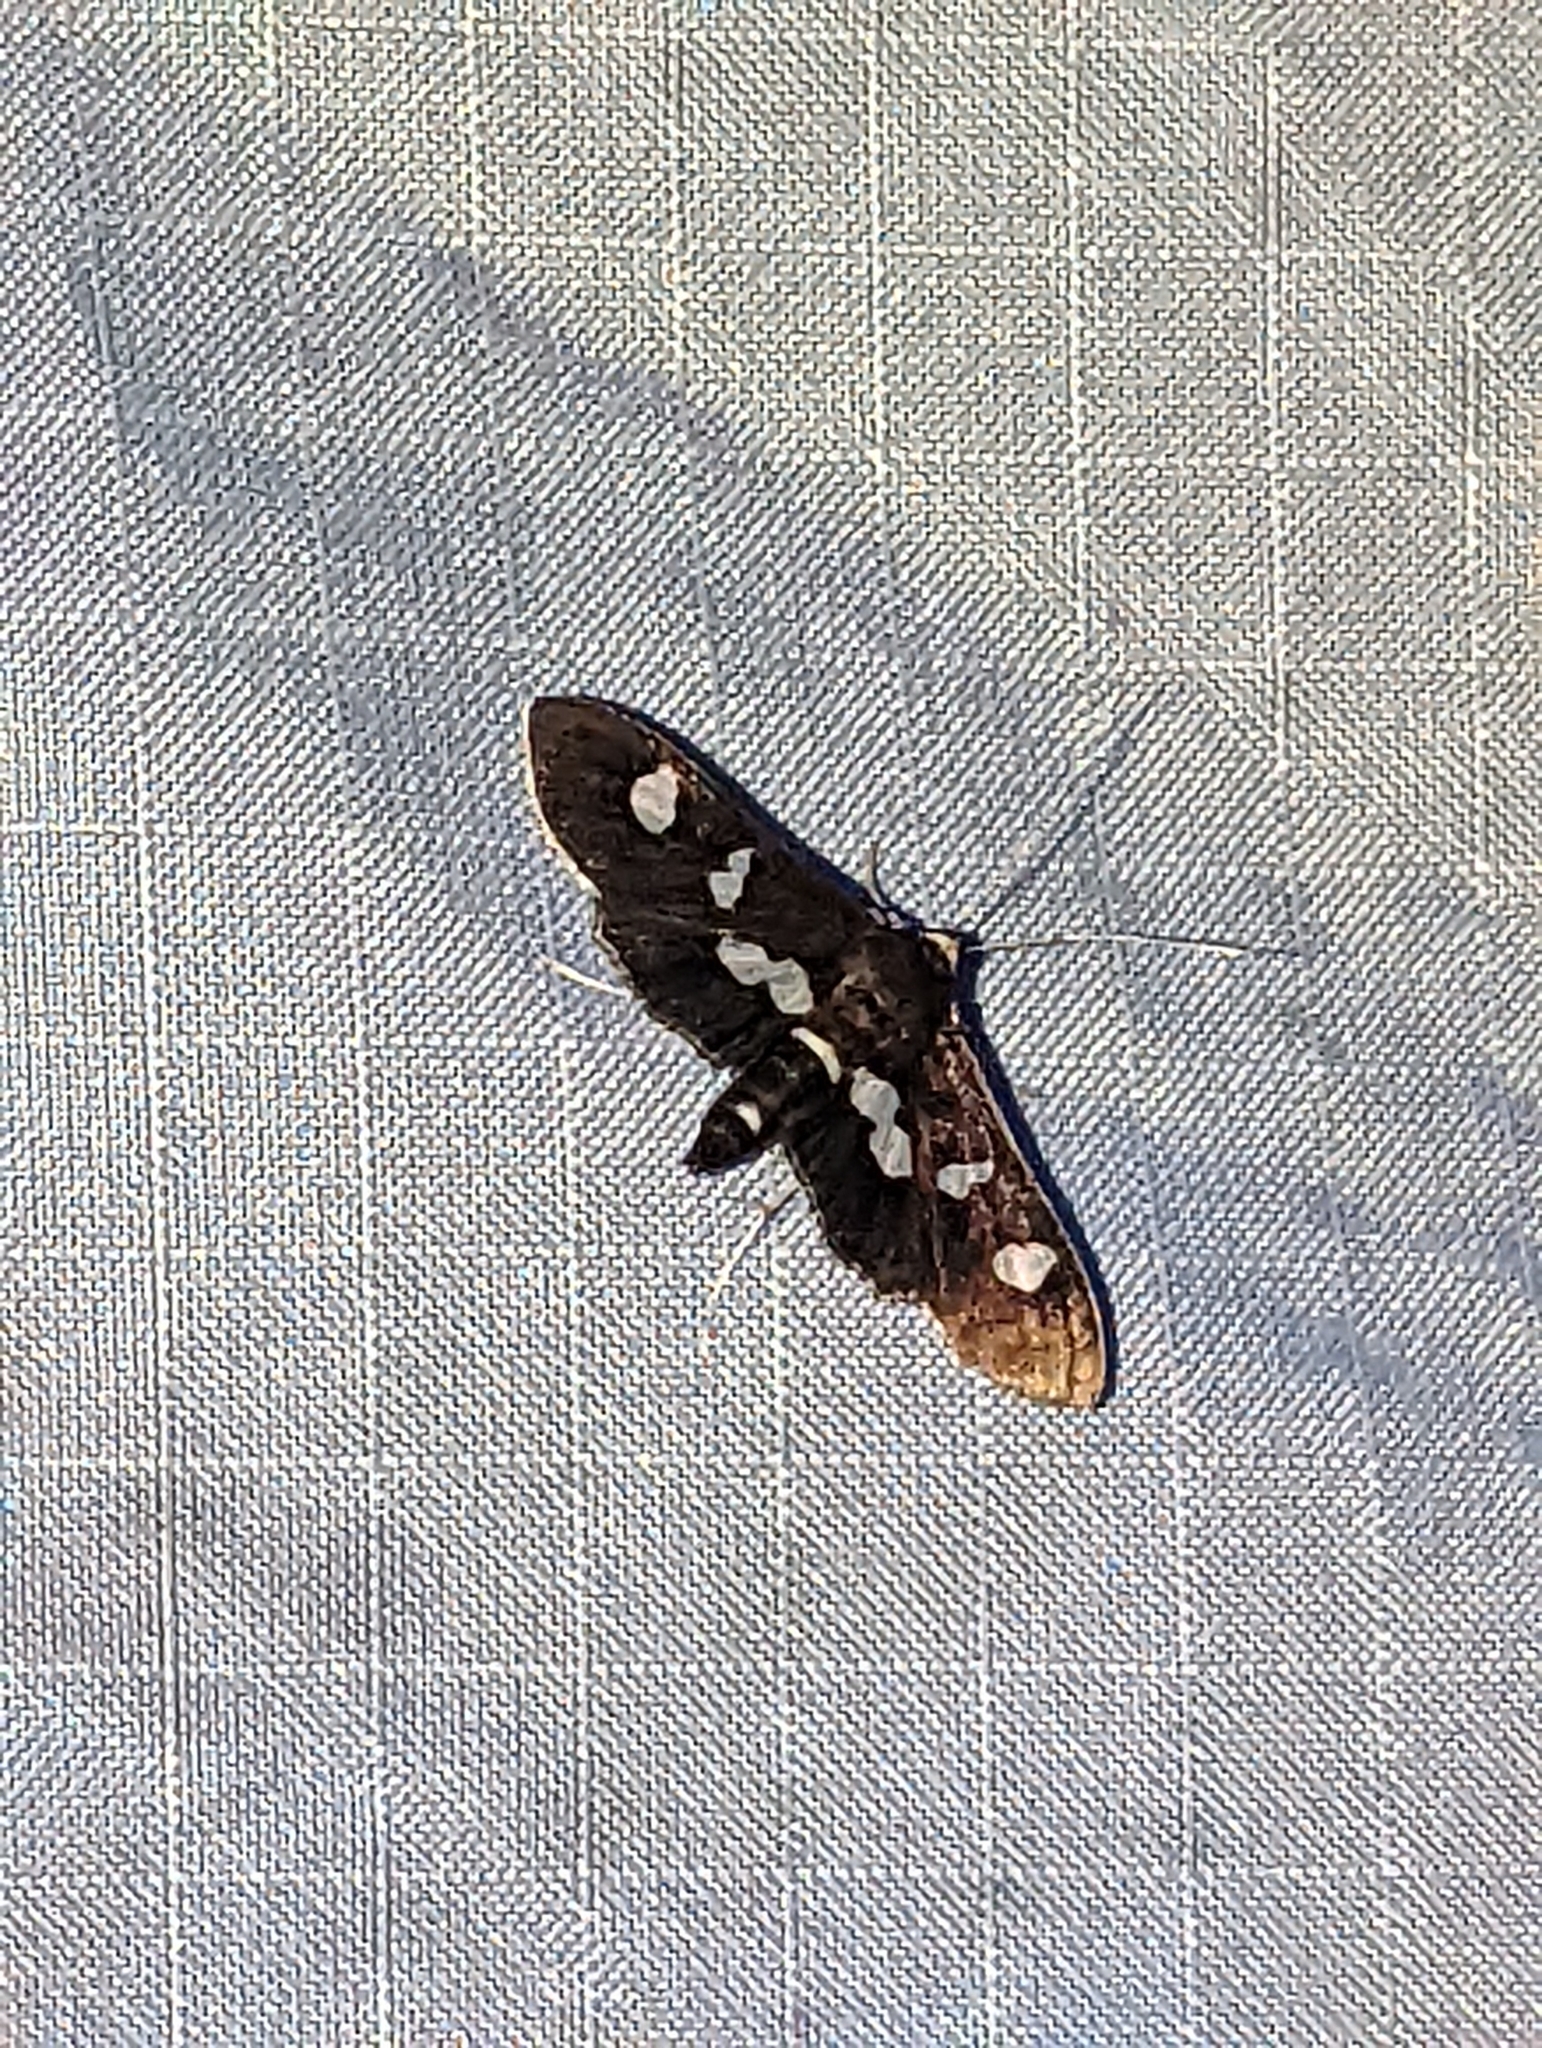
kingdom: Animalia
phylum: Arthropoda
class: Insecta
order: Lepidoptera
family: Crambidae
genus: Desmia
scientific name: Desmia
